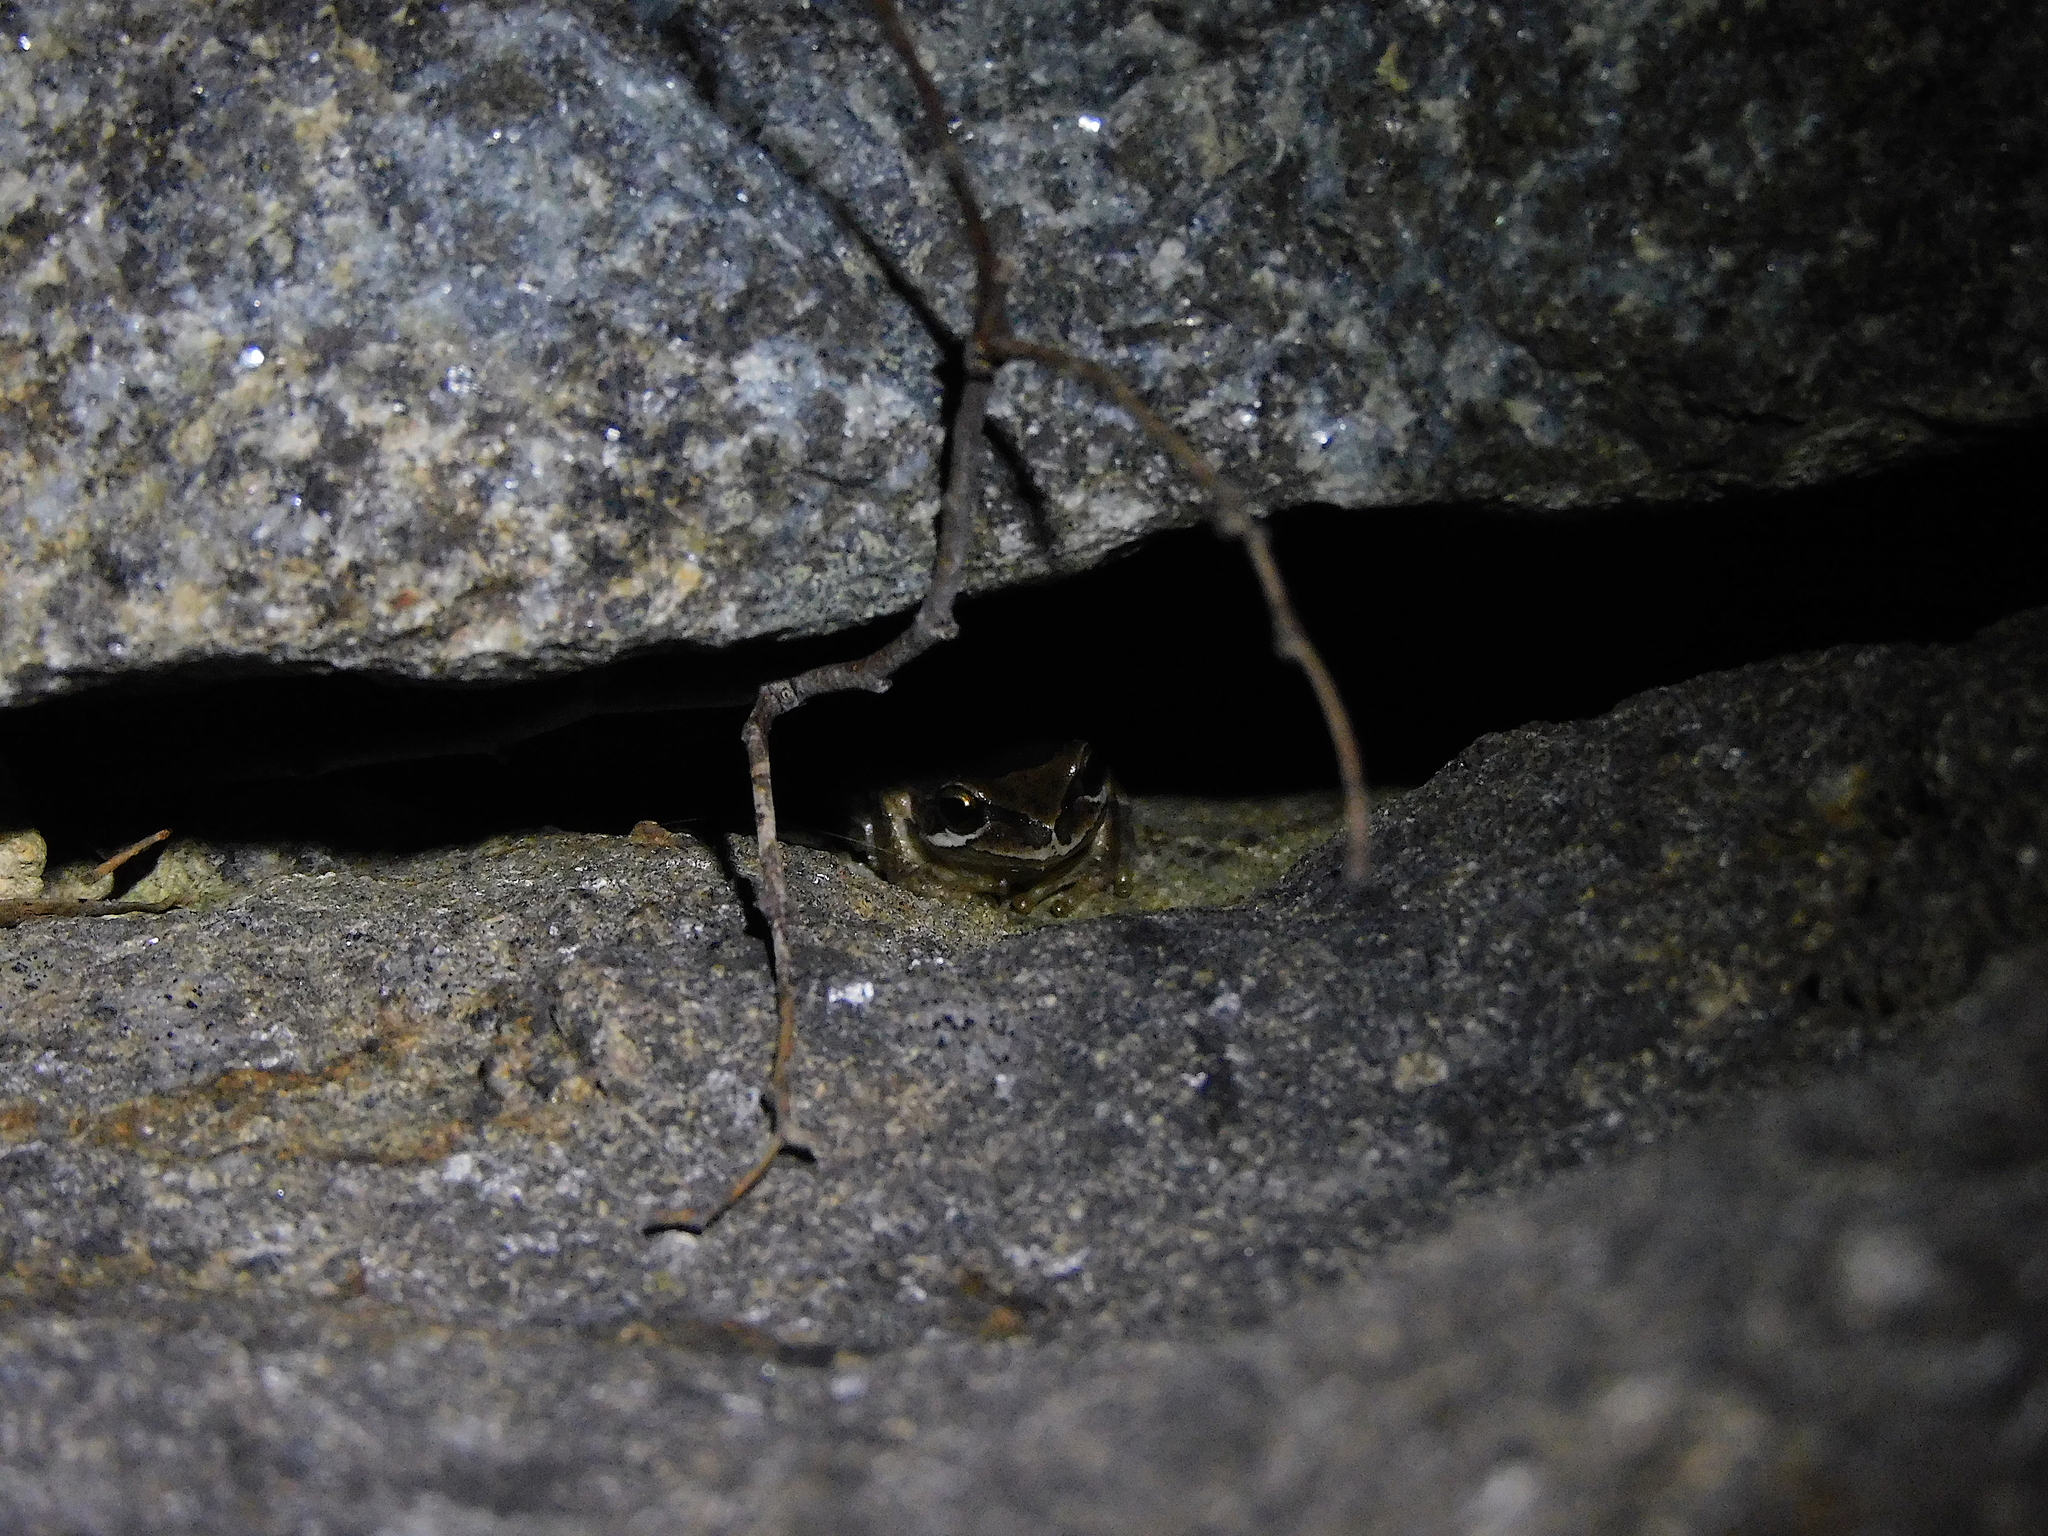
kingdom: Animalia
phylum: Chordata
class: Amphibia
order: Anura
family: Pelodryadidae
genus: Litoria
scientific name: Litoria ewingii
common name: Southern brown tree frog
